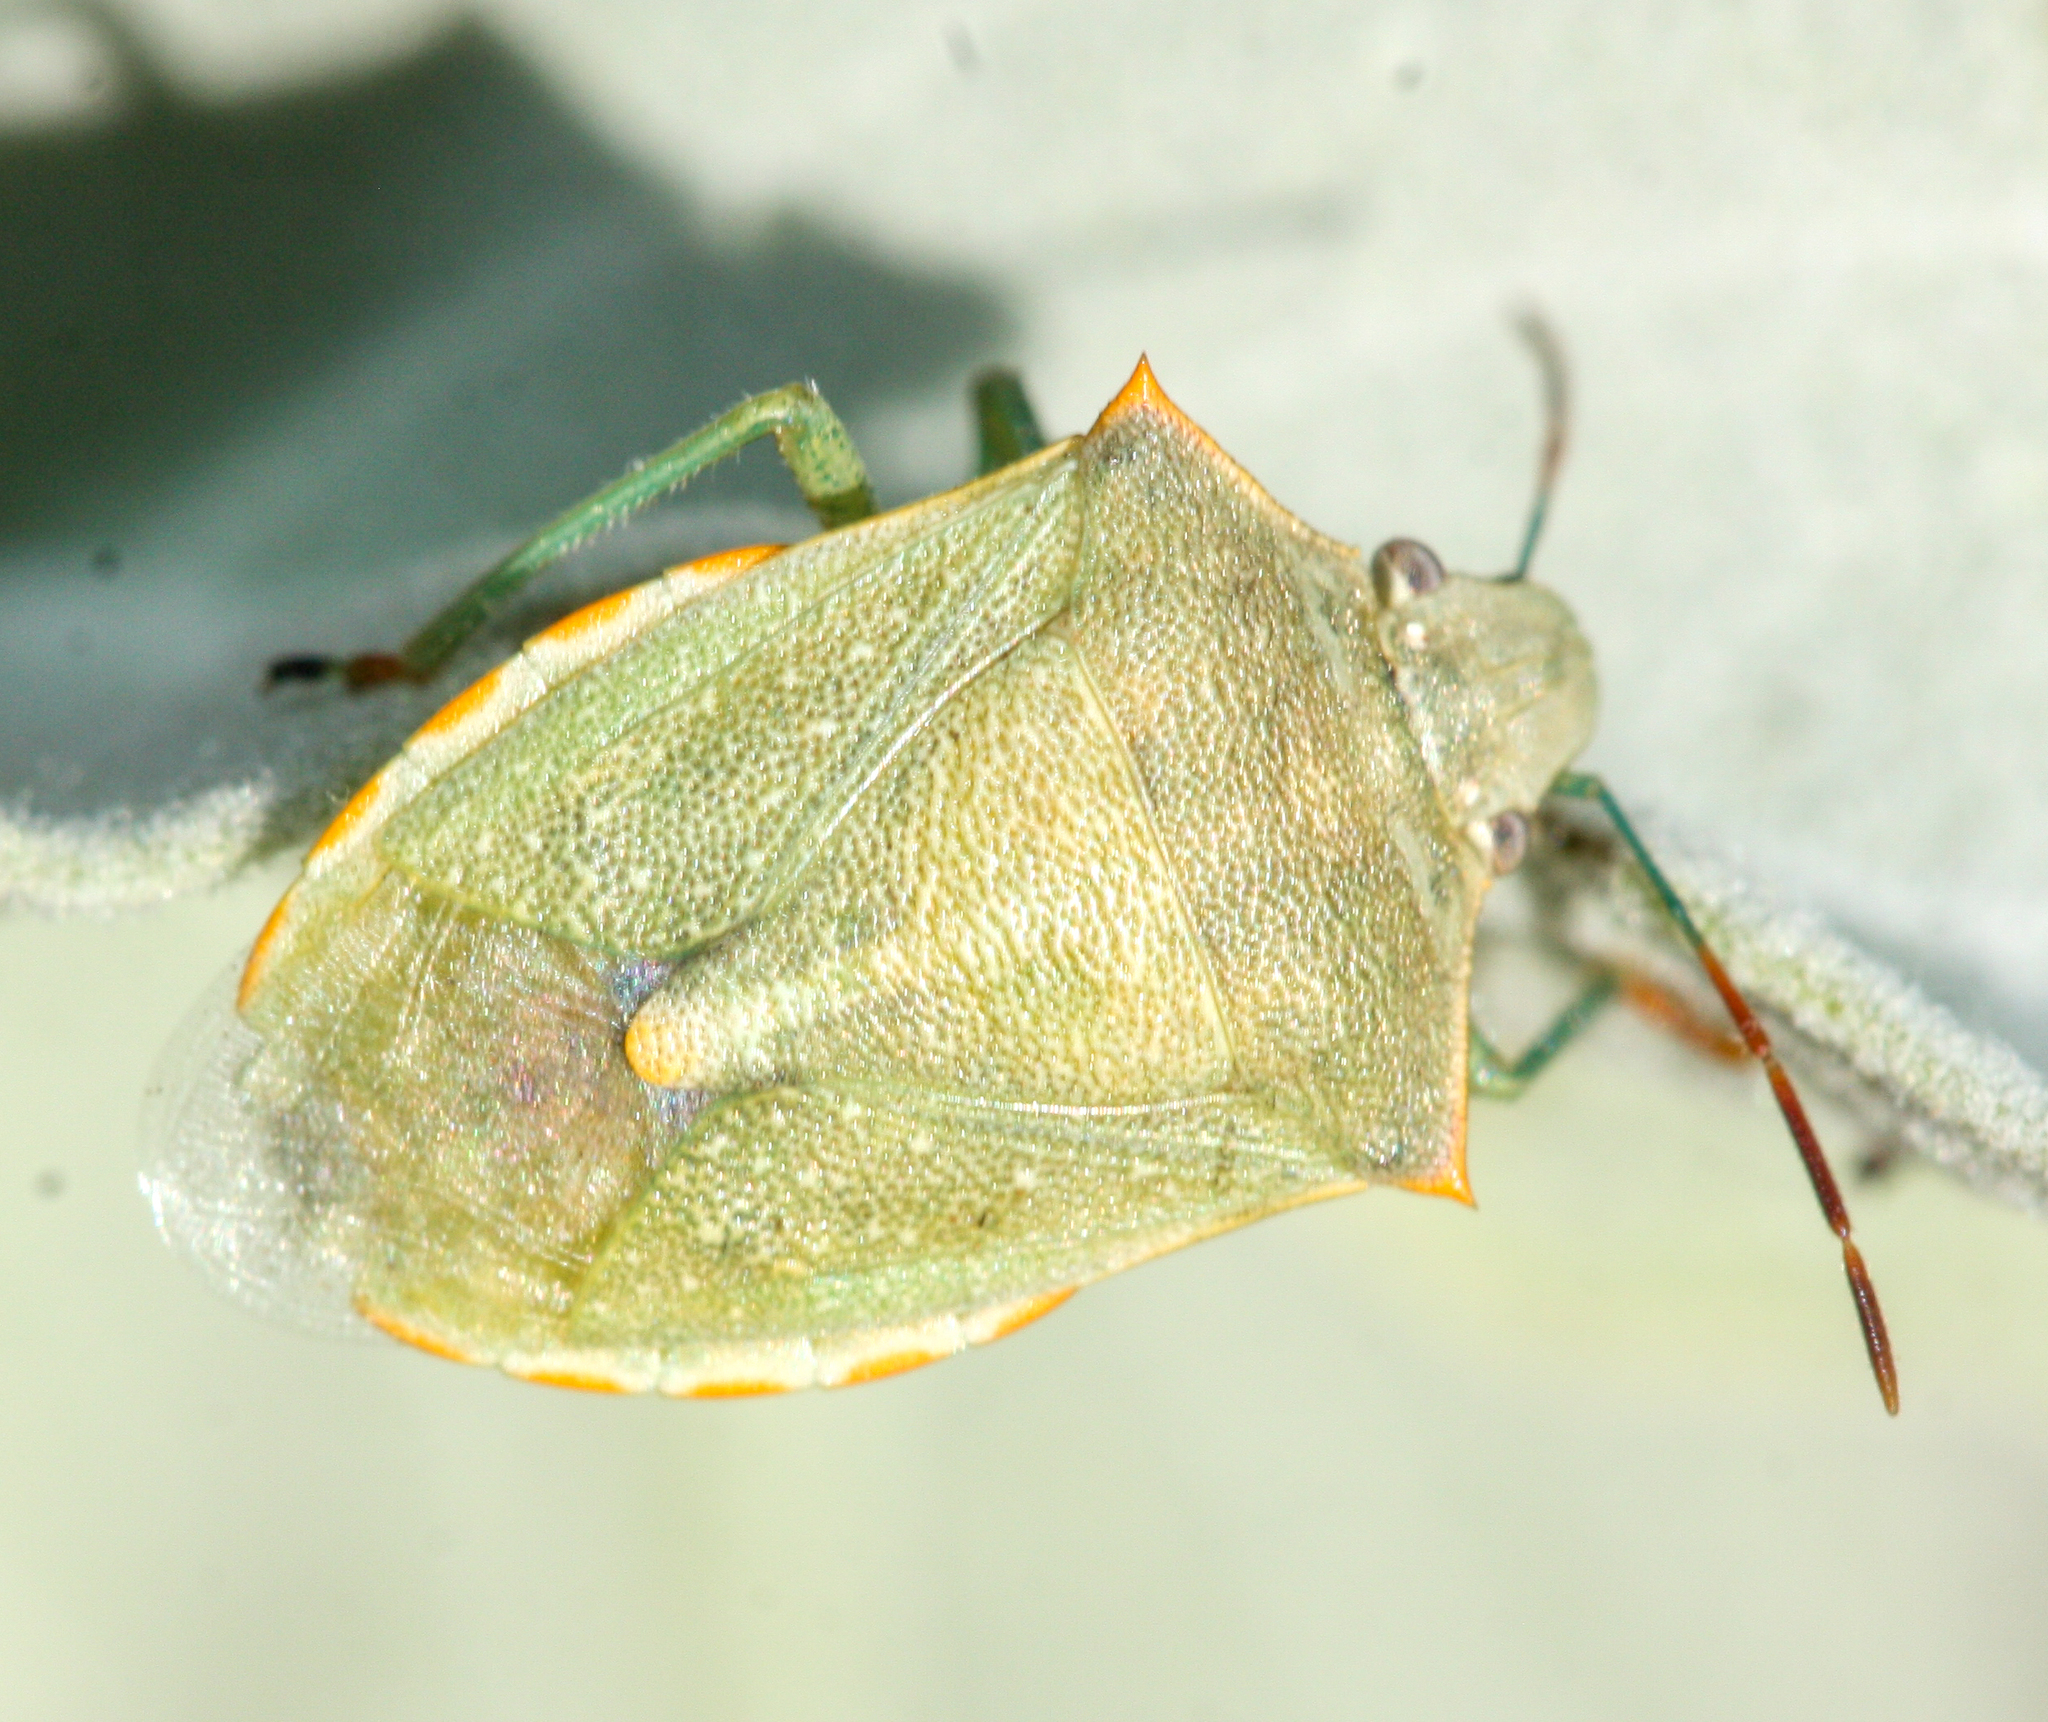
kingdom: Animalia
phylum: Arthropoda
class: Insecta
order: Hemiptera
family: Pentatomidae
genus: Thyanta
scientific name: Thyanta accerra
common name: Stink bug
